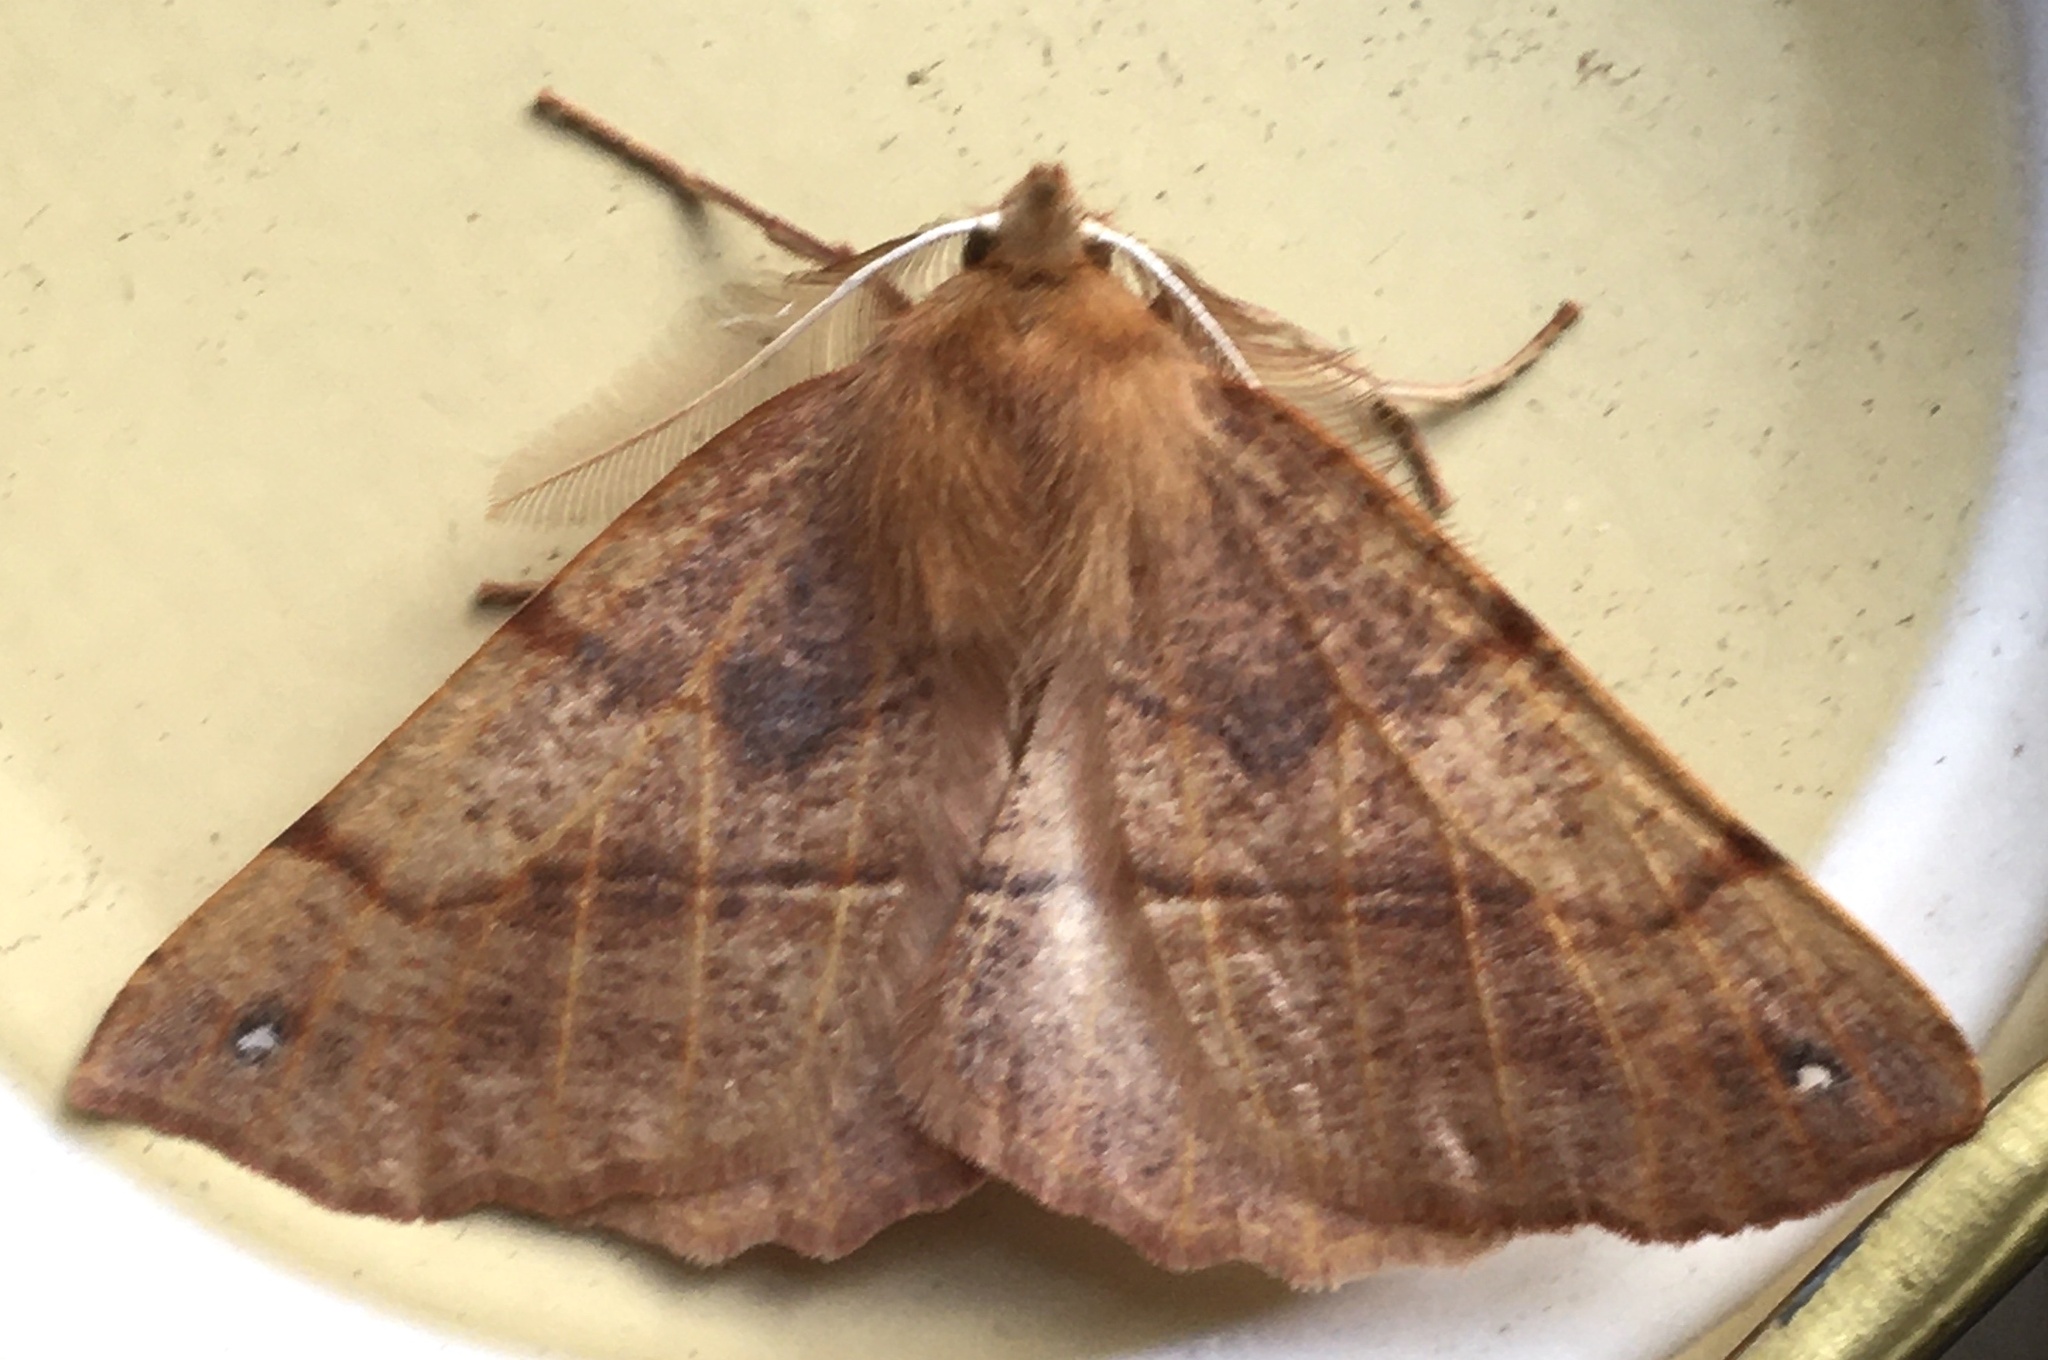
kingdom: Animalia
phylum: Arthropoda
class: Insecta
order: Lepidoptera
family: Geometridae
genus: Colotois
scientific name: Colotois pennaria
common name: Feathered thorn
